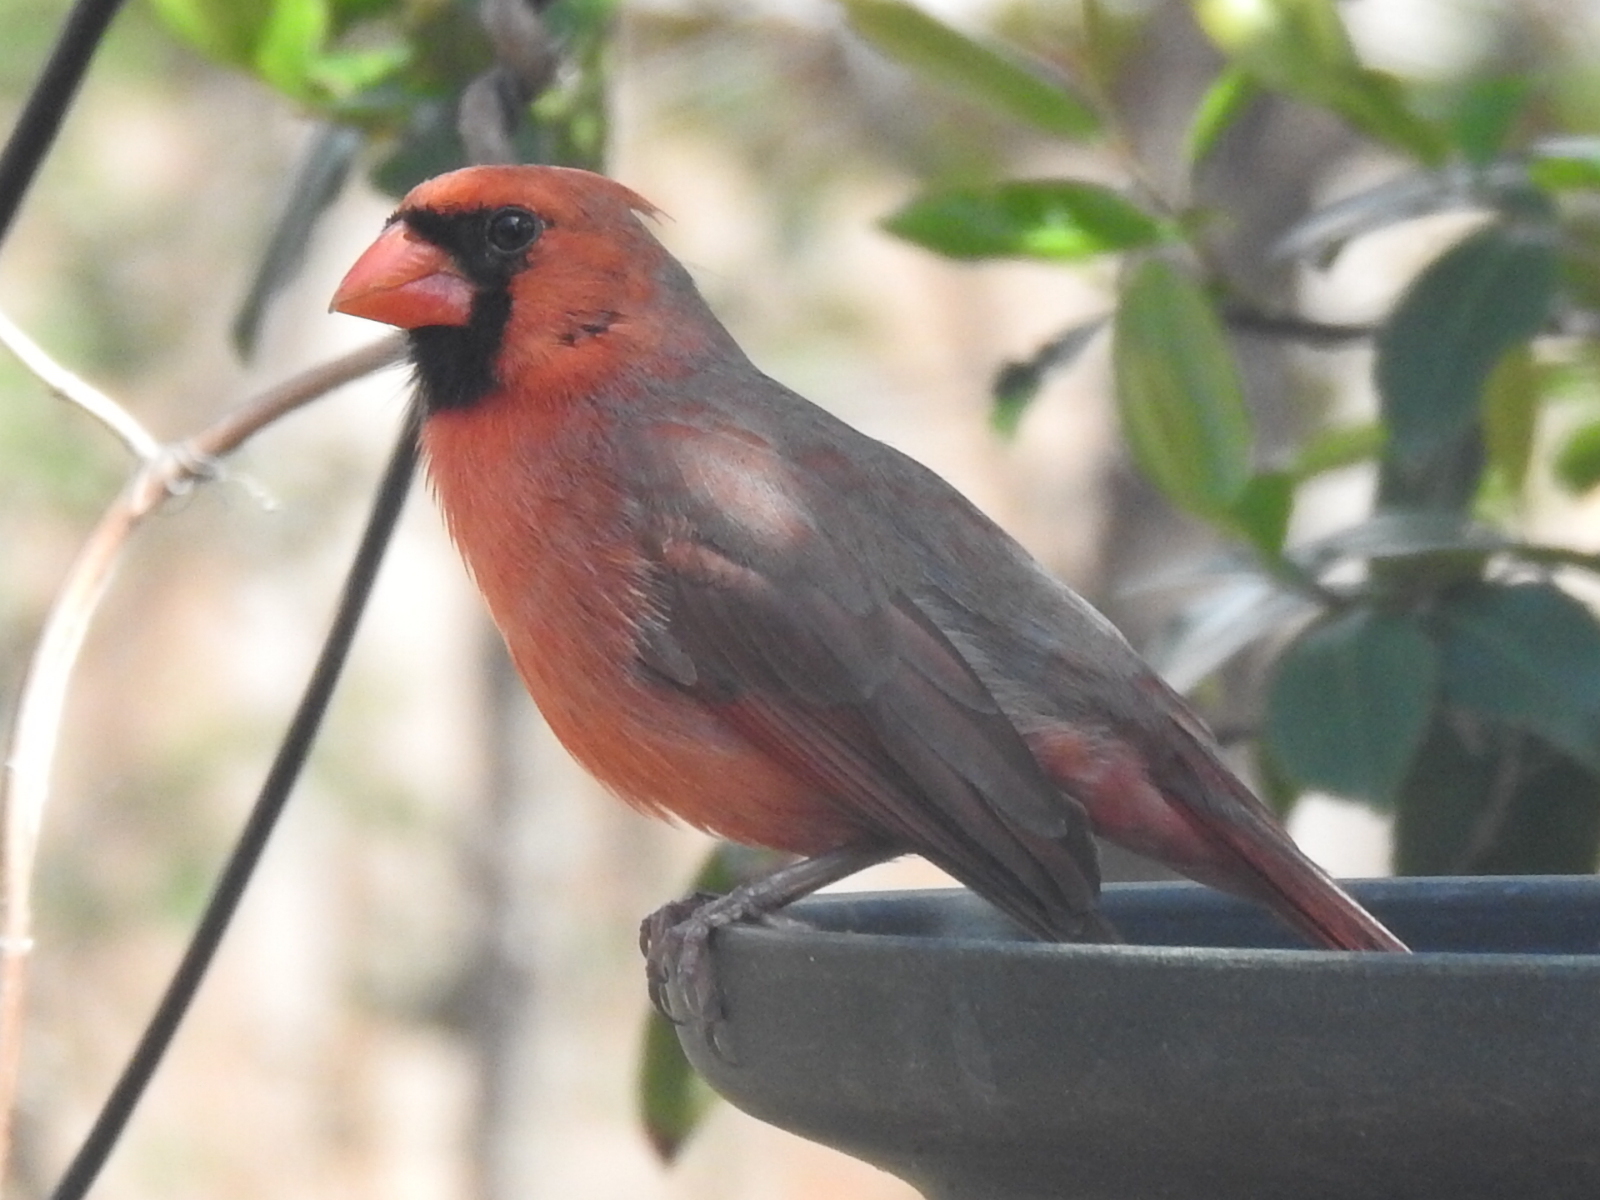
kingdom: Animalia
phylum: Chordata
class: Aves
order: Passeriformes
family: Cardinalidae
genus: Cardinalis
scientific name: Cardinalis cardinalis
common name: Northern cardinal
